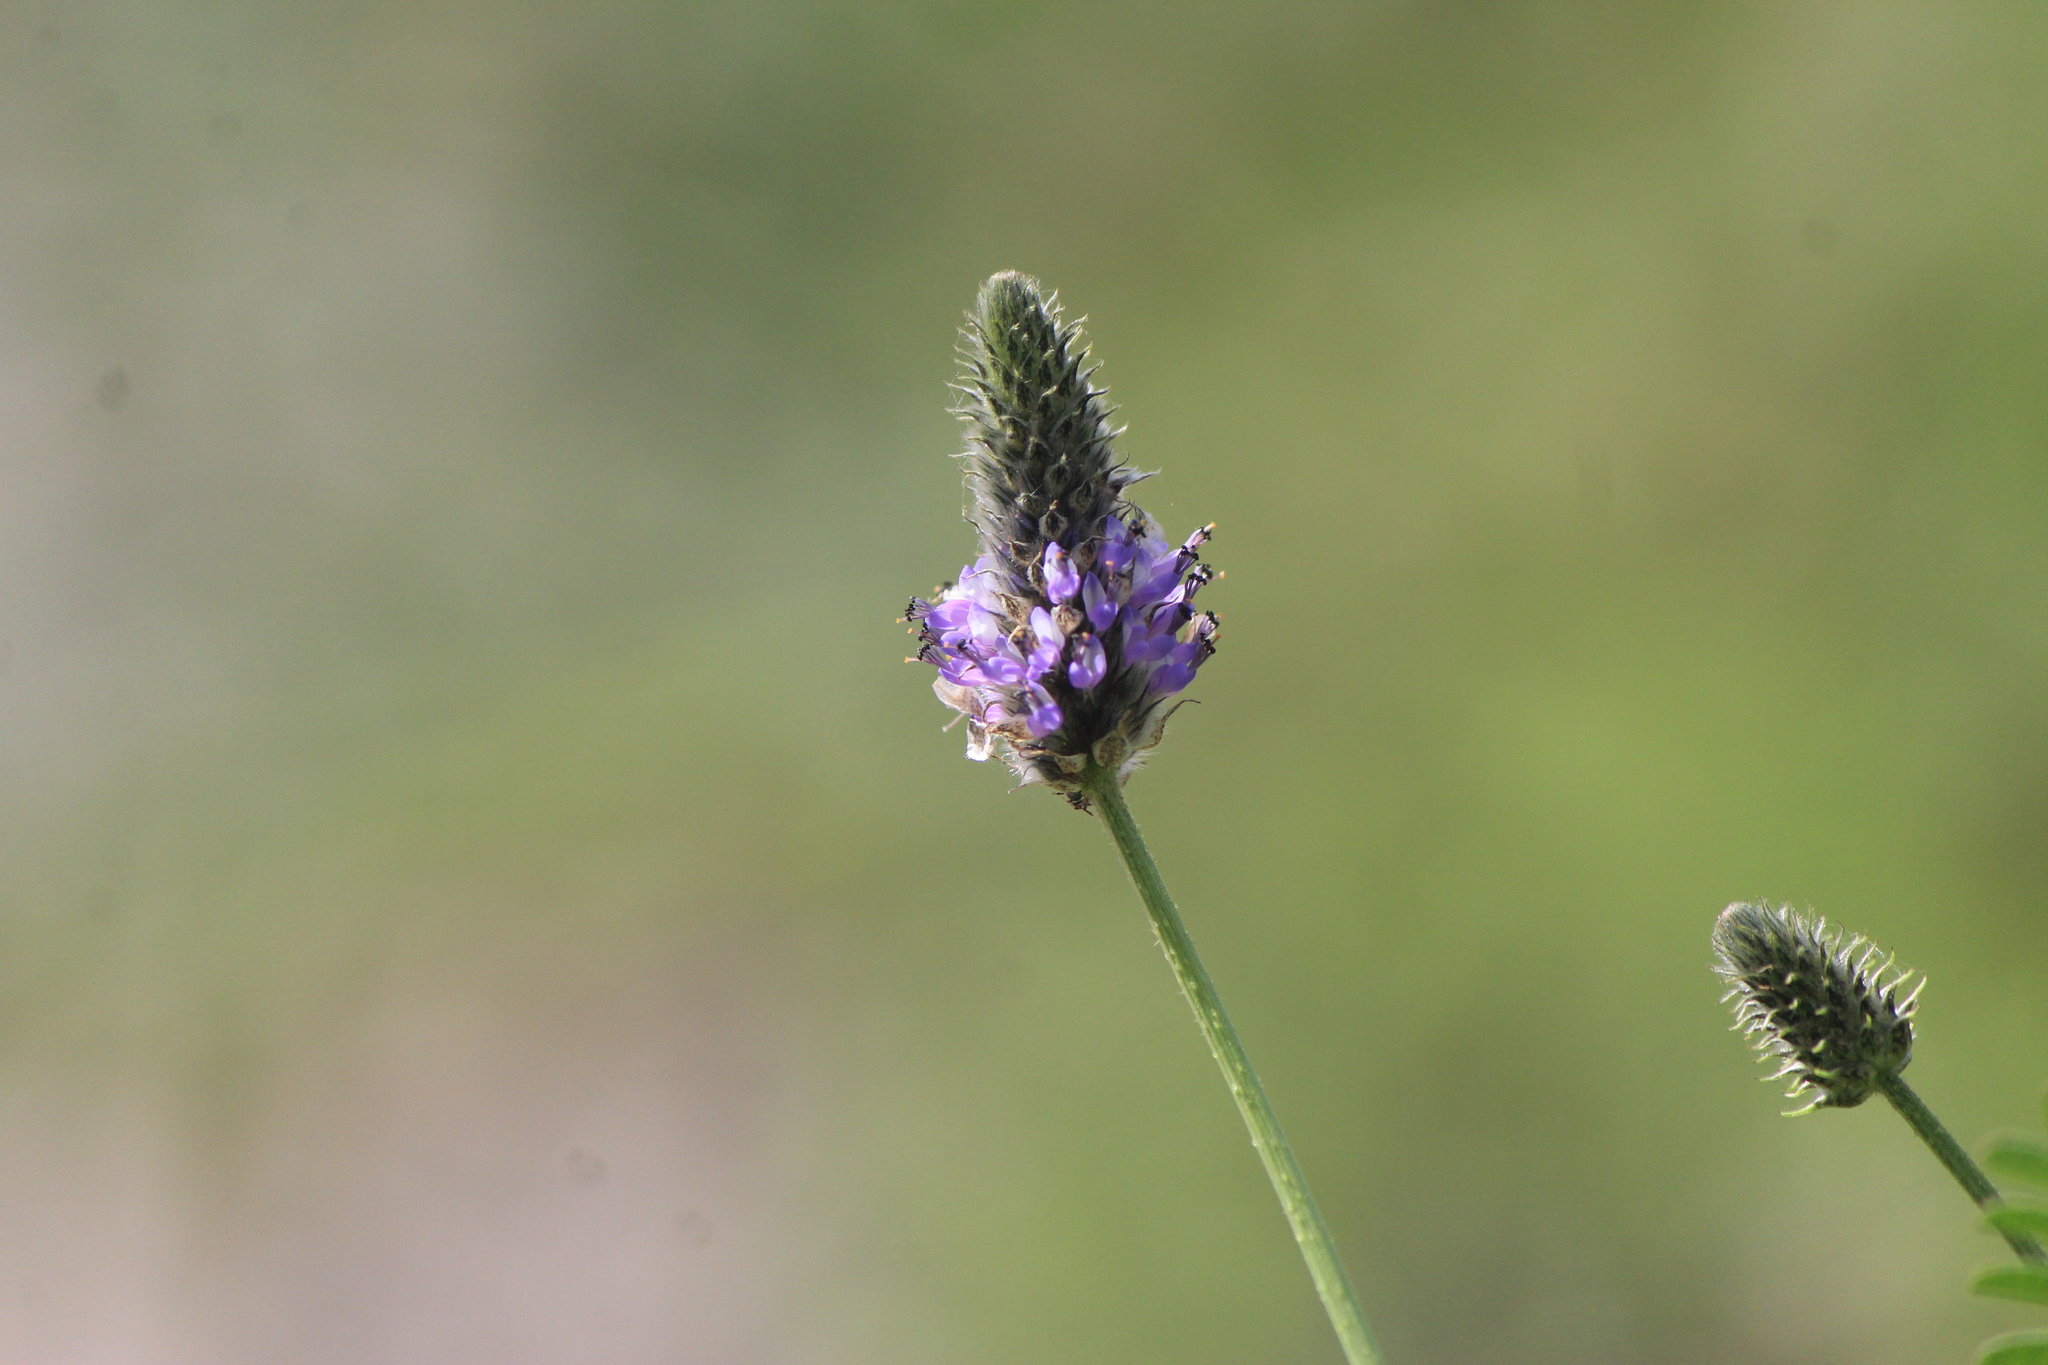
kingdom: Plantae
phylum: Tracheophyta
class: Magnoliopsida
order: Fabales
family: Fabaceae
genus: Dalea
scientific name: Dalea foliolosa
